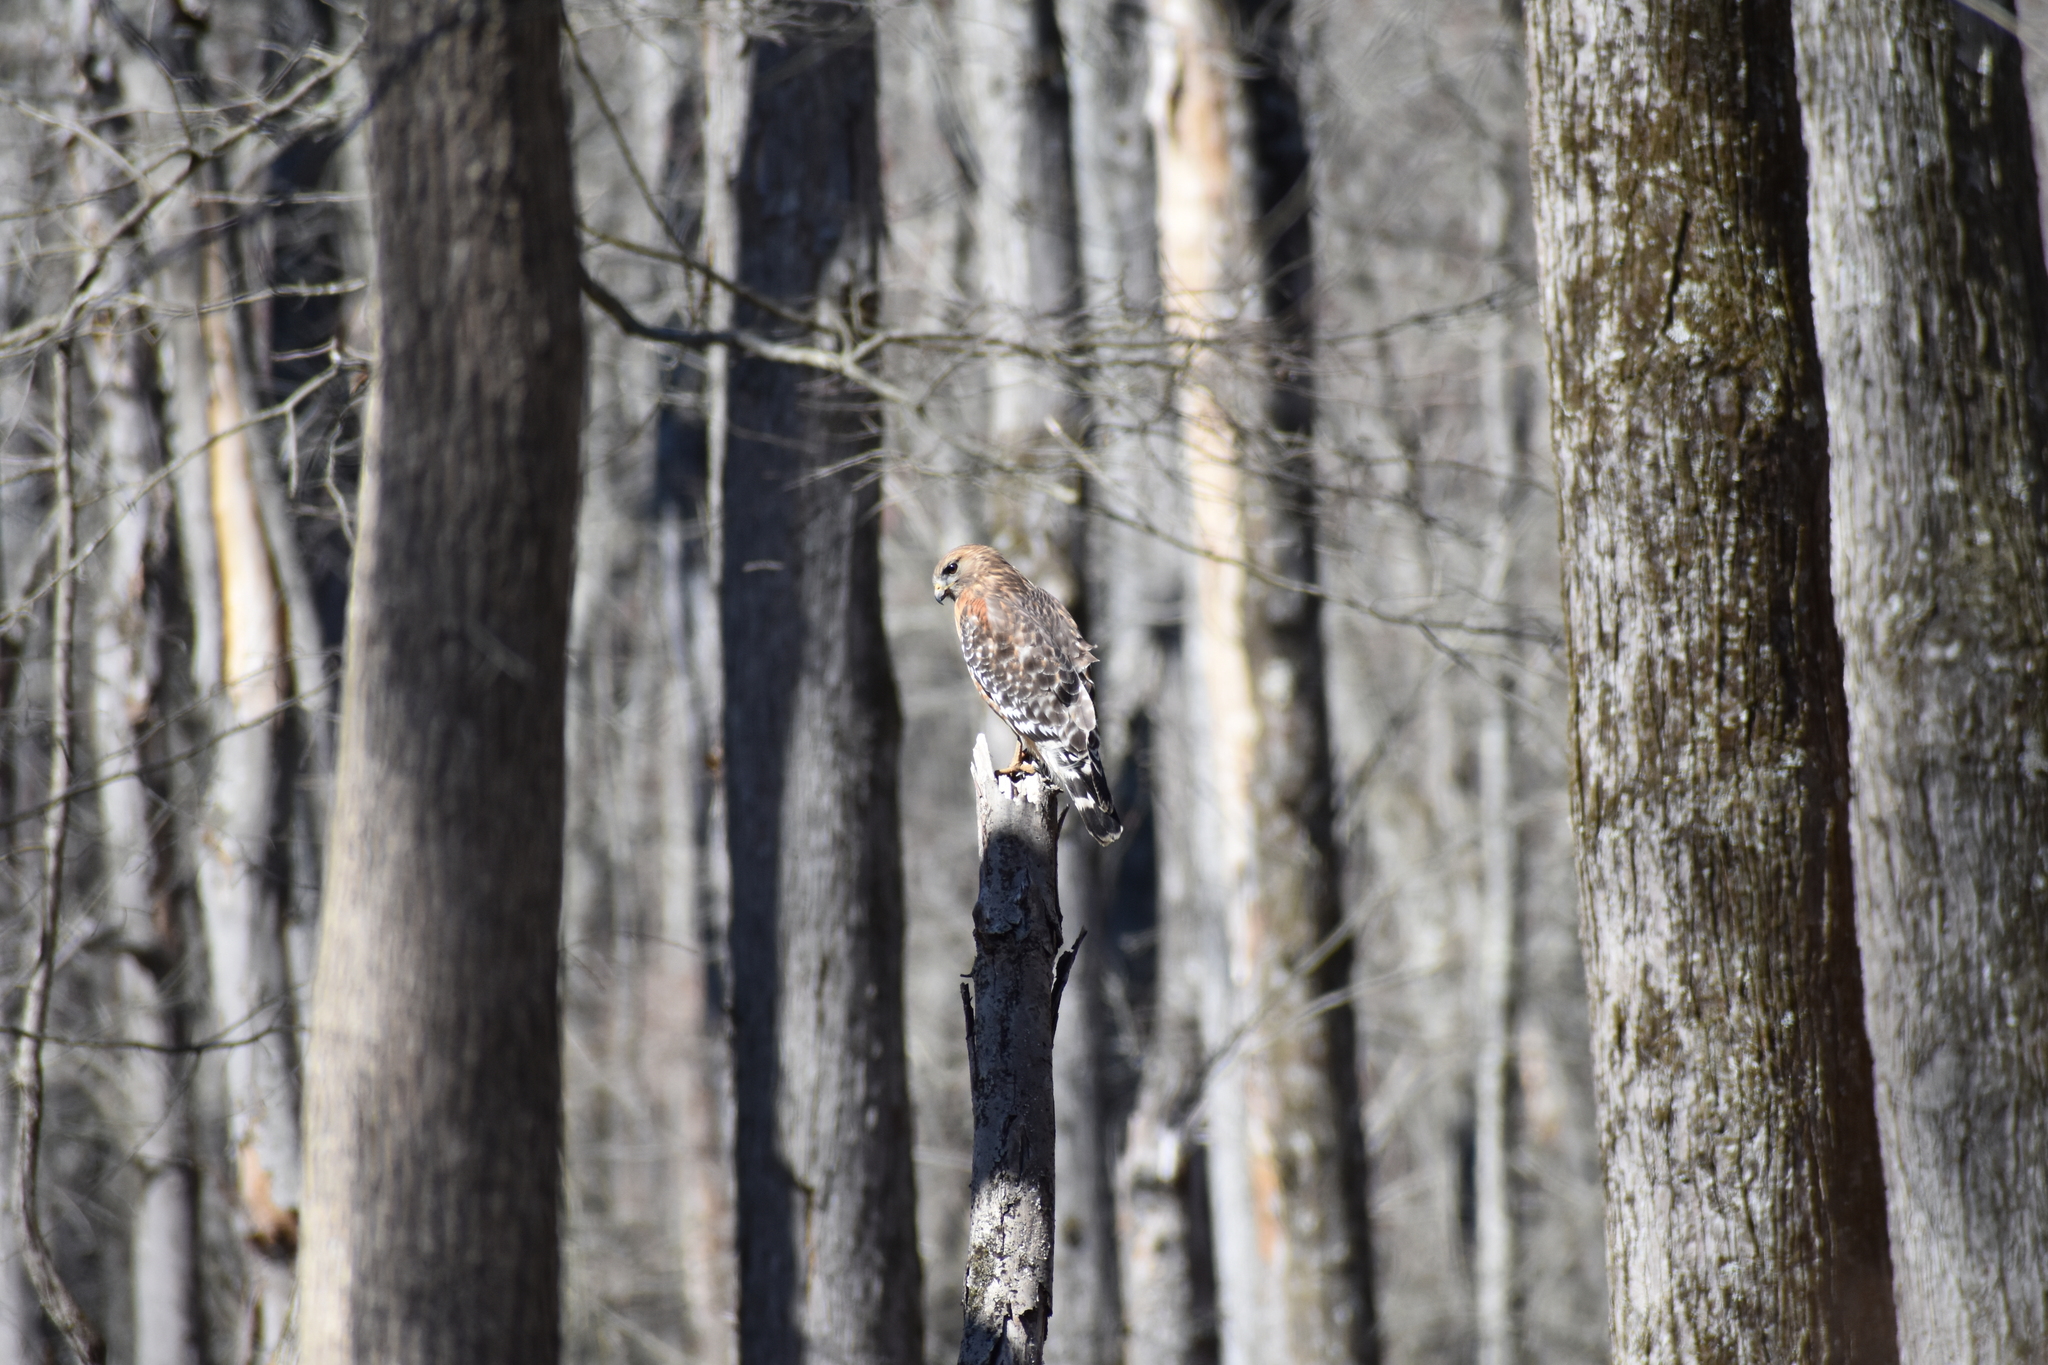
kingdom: Animalia
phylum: Chordata
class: Aves
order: Accipitriformes
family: Accipitridae
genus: Buteo
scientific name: Buteo lineatus
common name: Red-shouldered hawk
